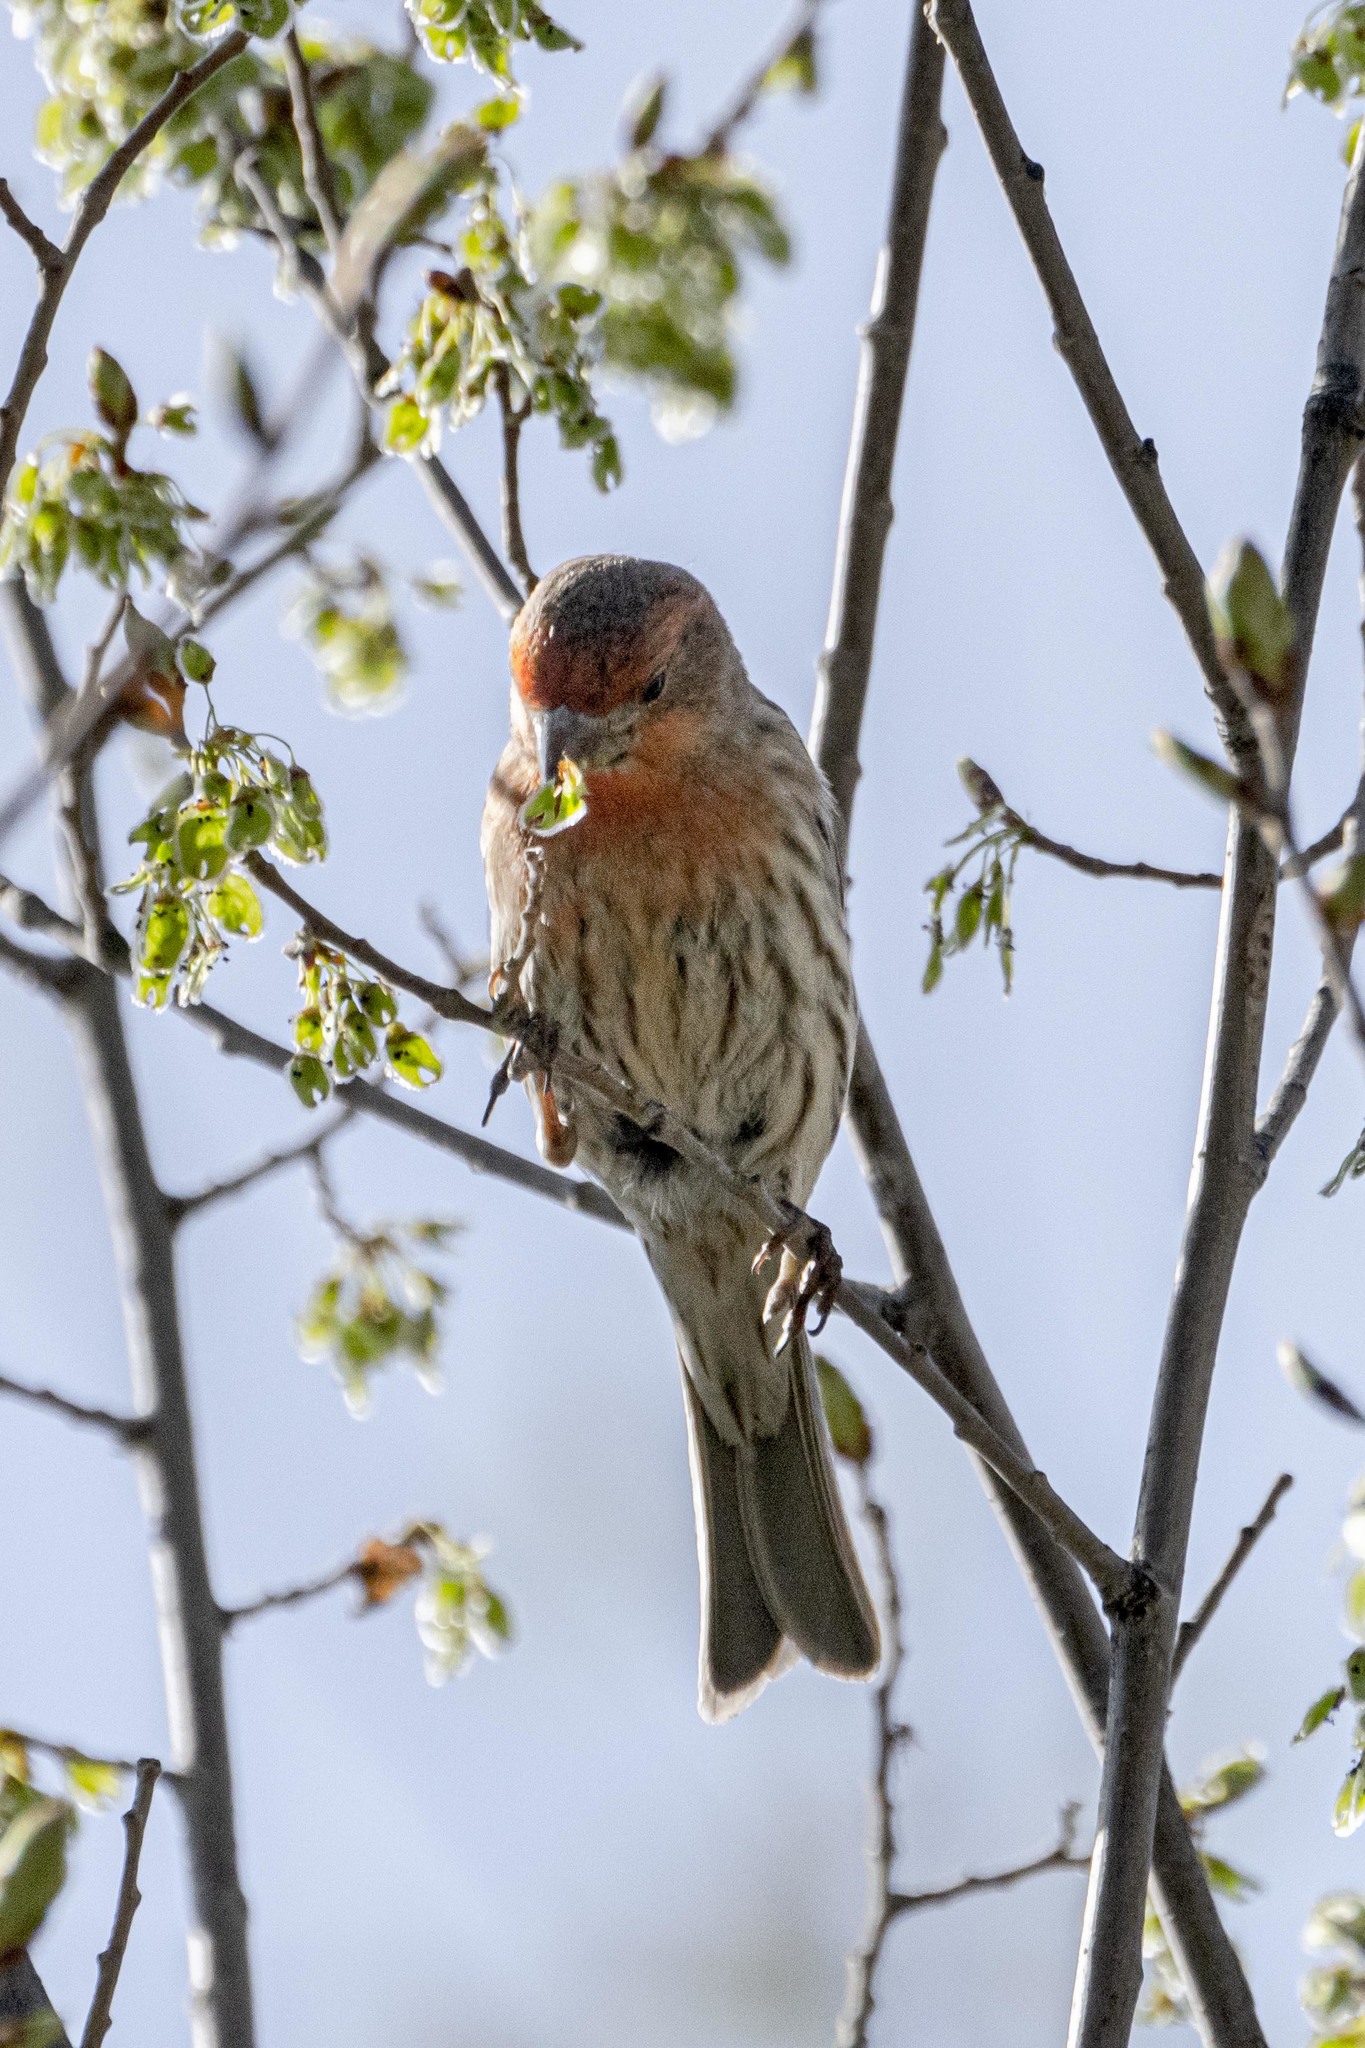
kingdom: Animalia
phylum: Chordata
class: Aves
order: Passeriformes
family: Fringillidae
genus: Haemorhous
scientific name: Haemorhous mexicanus
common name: House finch
